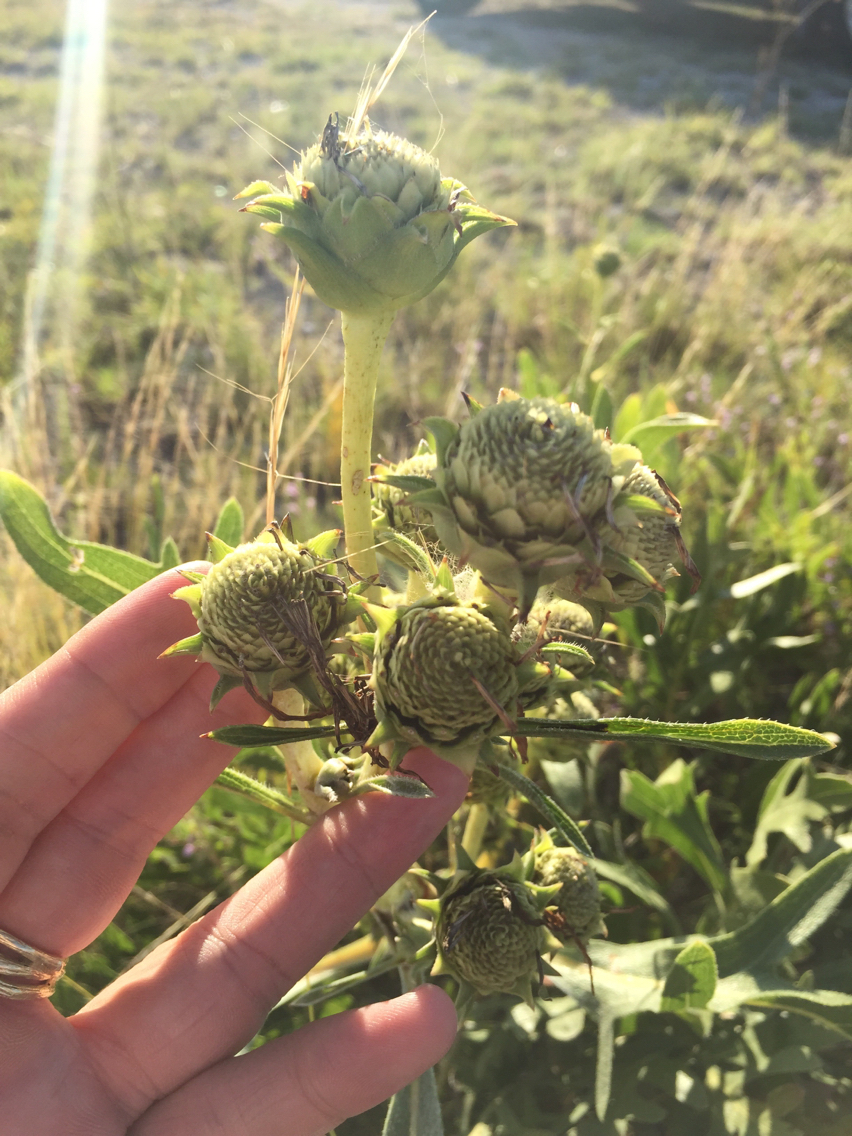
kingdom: Plantae
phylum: Tracheophyta
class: Magnoliopsida
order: Asterales
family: Asteraceae
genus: Silphium
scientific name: Silphium albiflorum
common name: White rosinweed
